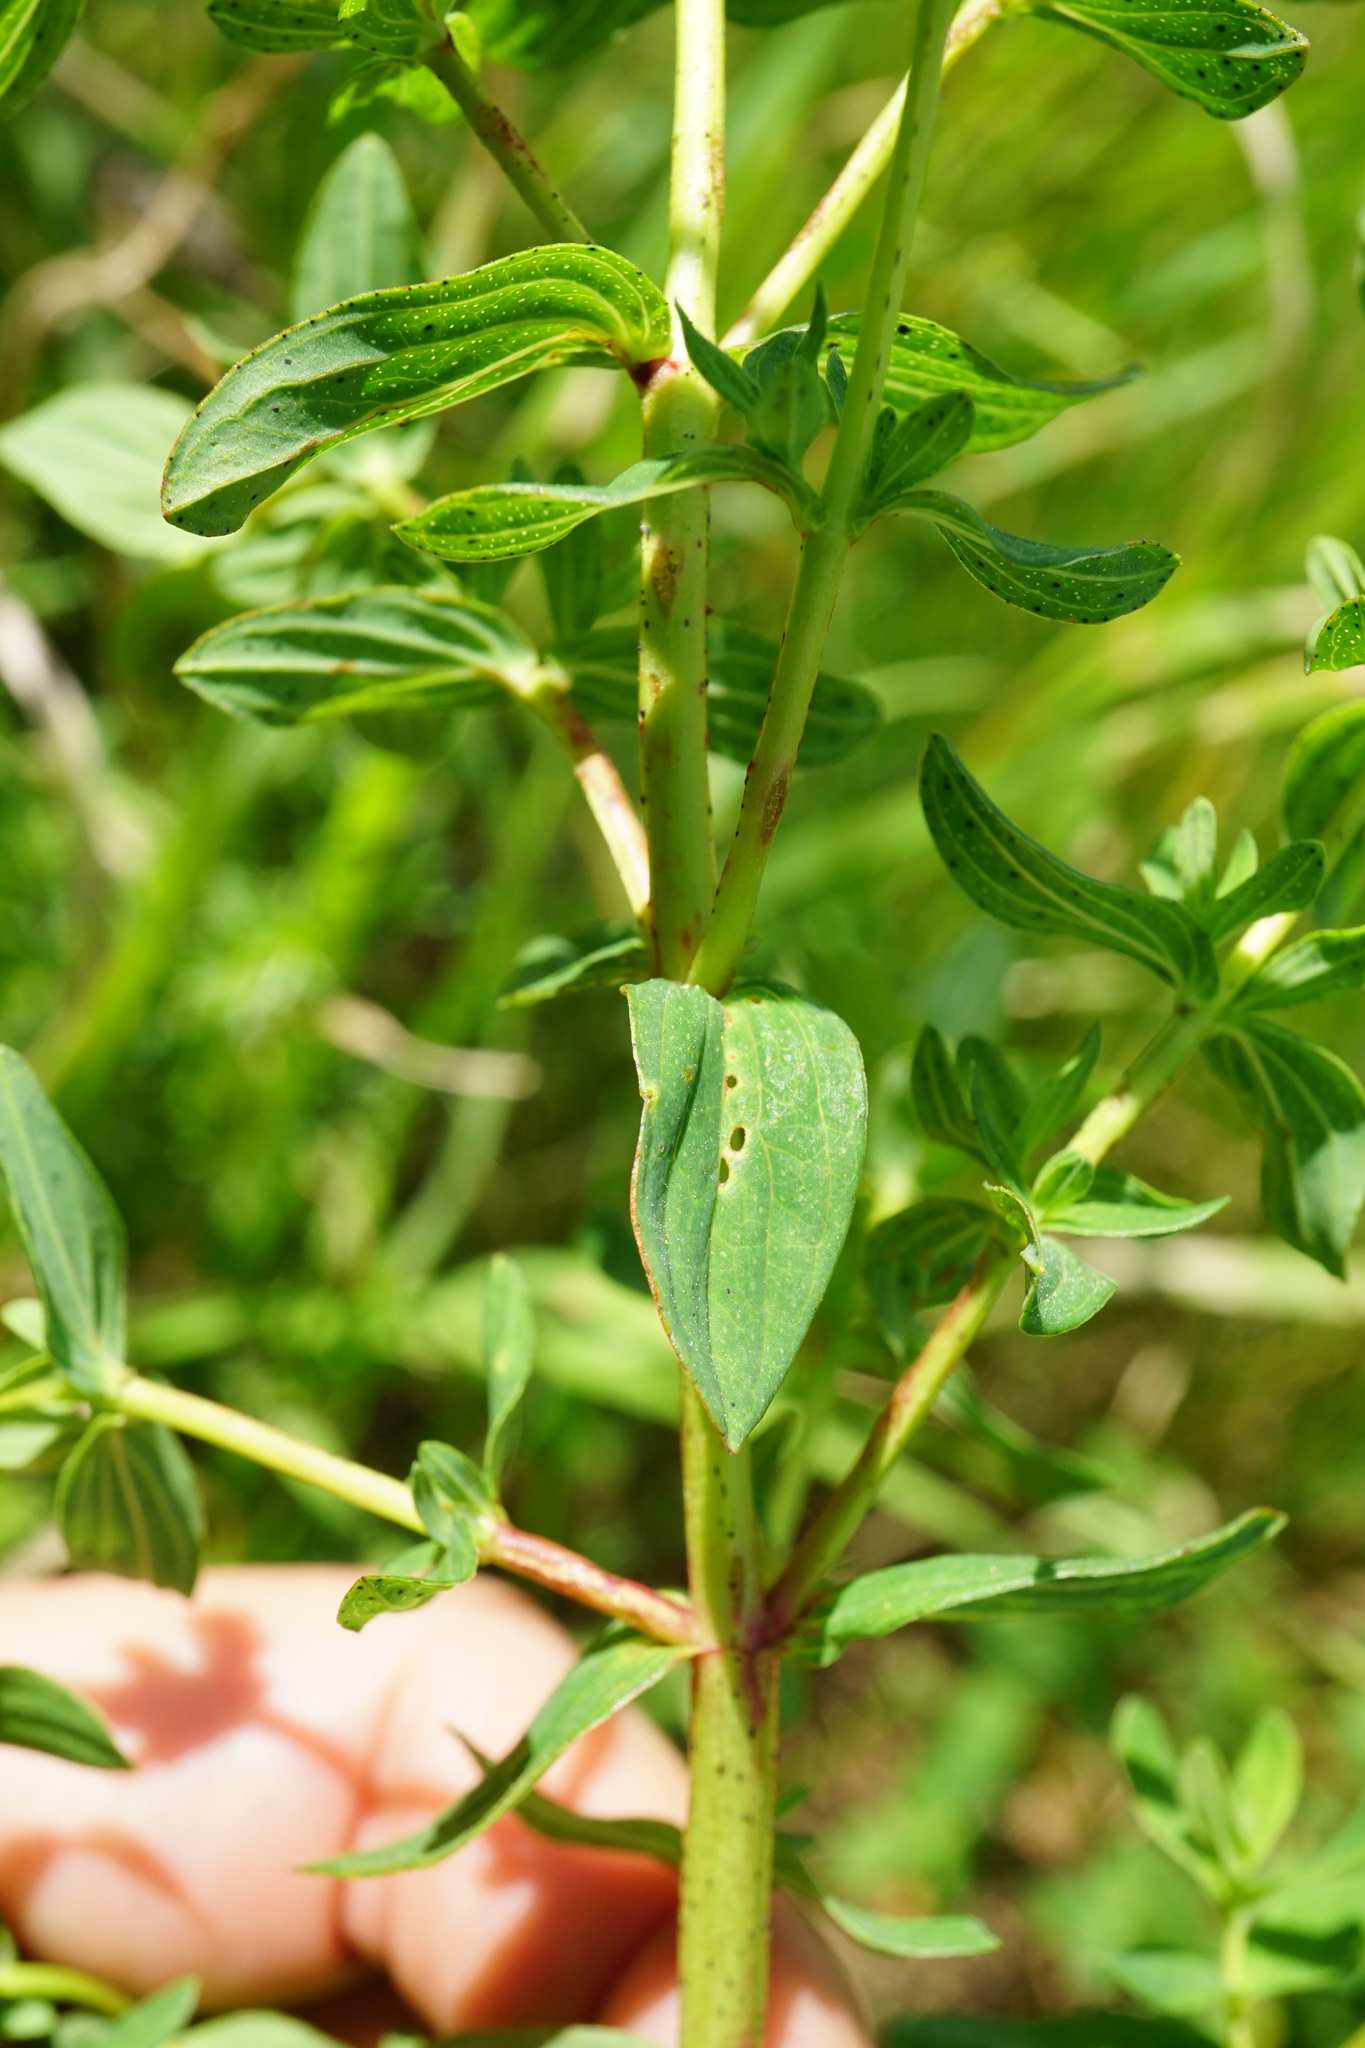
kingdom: Plantae
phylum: Tracheophyta
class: Magnoliopsida
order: Malpighiales
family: Hypericaceae
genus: Hypericum
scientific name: Hypericum desetangsii
